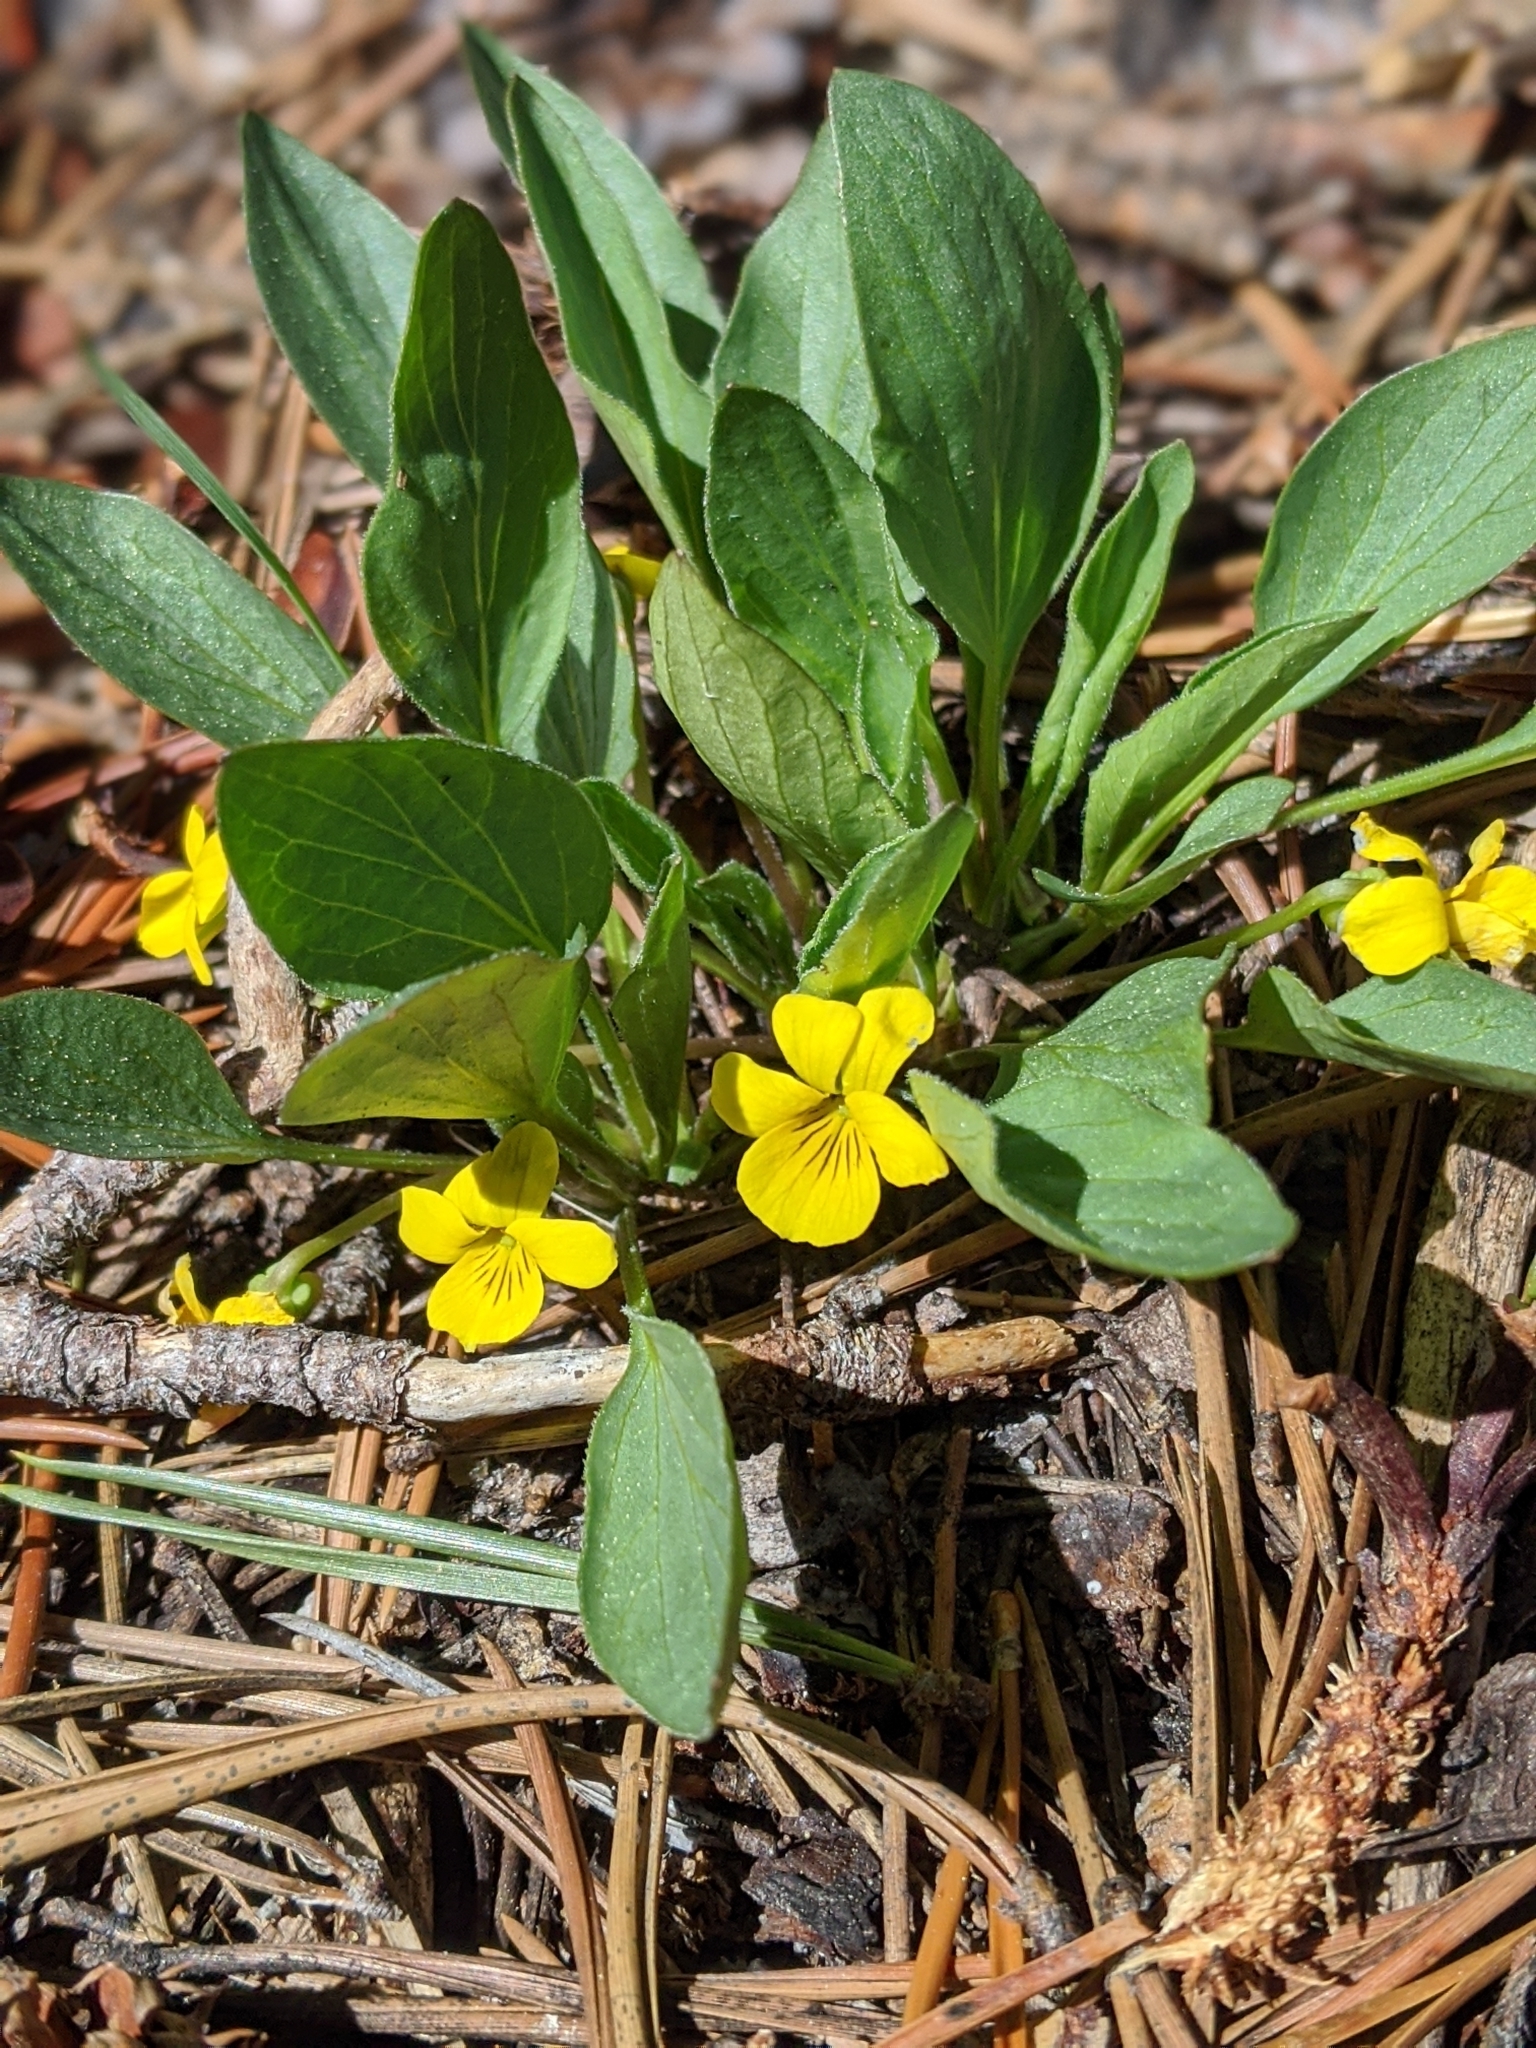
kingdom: Plantae
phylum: Tracheophyta
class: Magnoliopsida
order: Malpighiales
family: Violaceae
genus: Viola
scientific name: Viola bakeri
